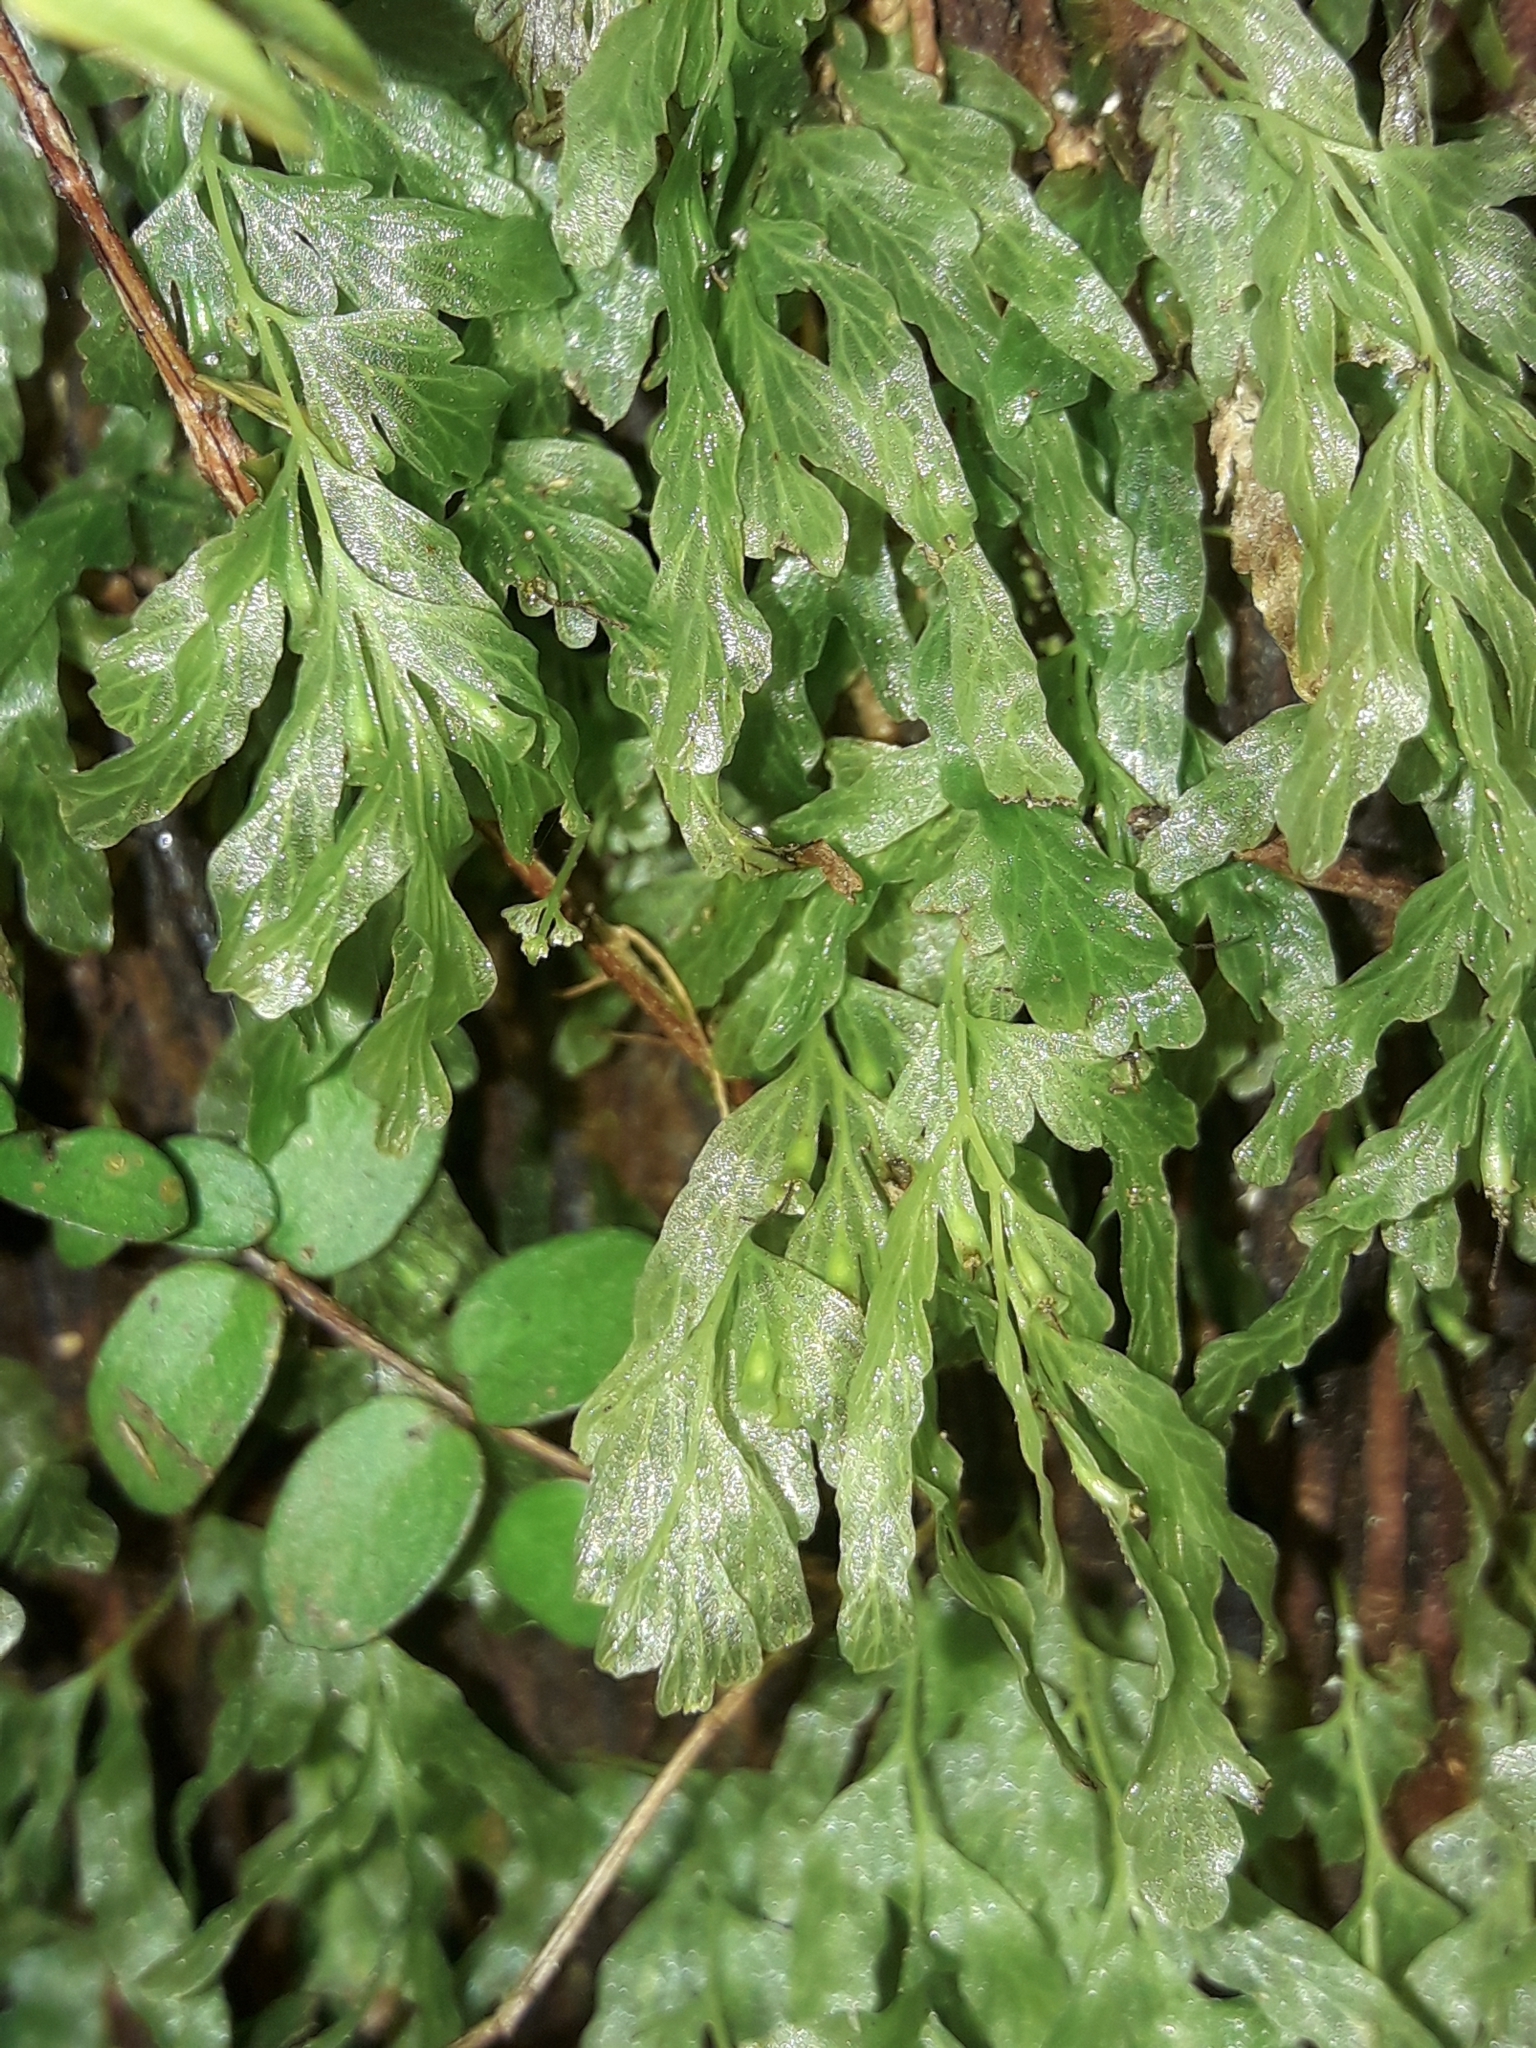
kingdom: Plantae
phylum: Tracheophyta
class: Polypodiopsida
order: Hymenophyllales
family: Hymenophyllaceae
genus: Polyphlebium
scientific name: Polyphlebium venosum
